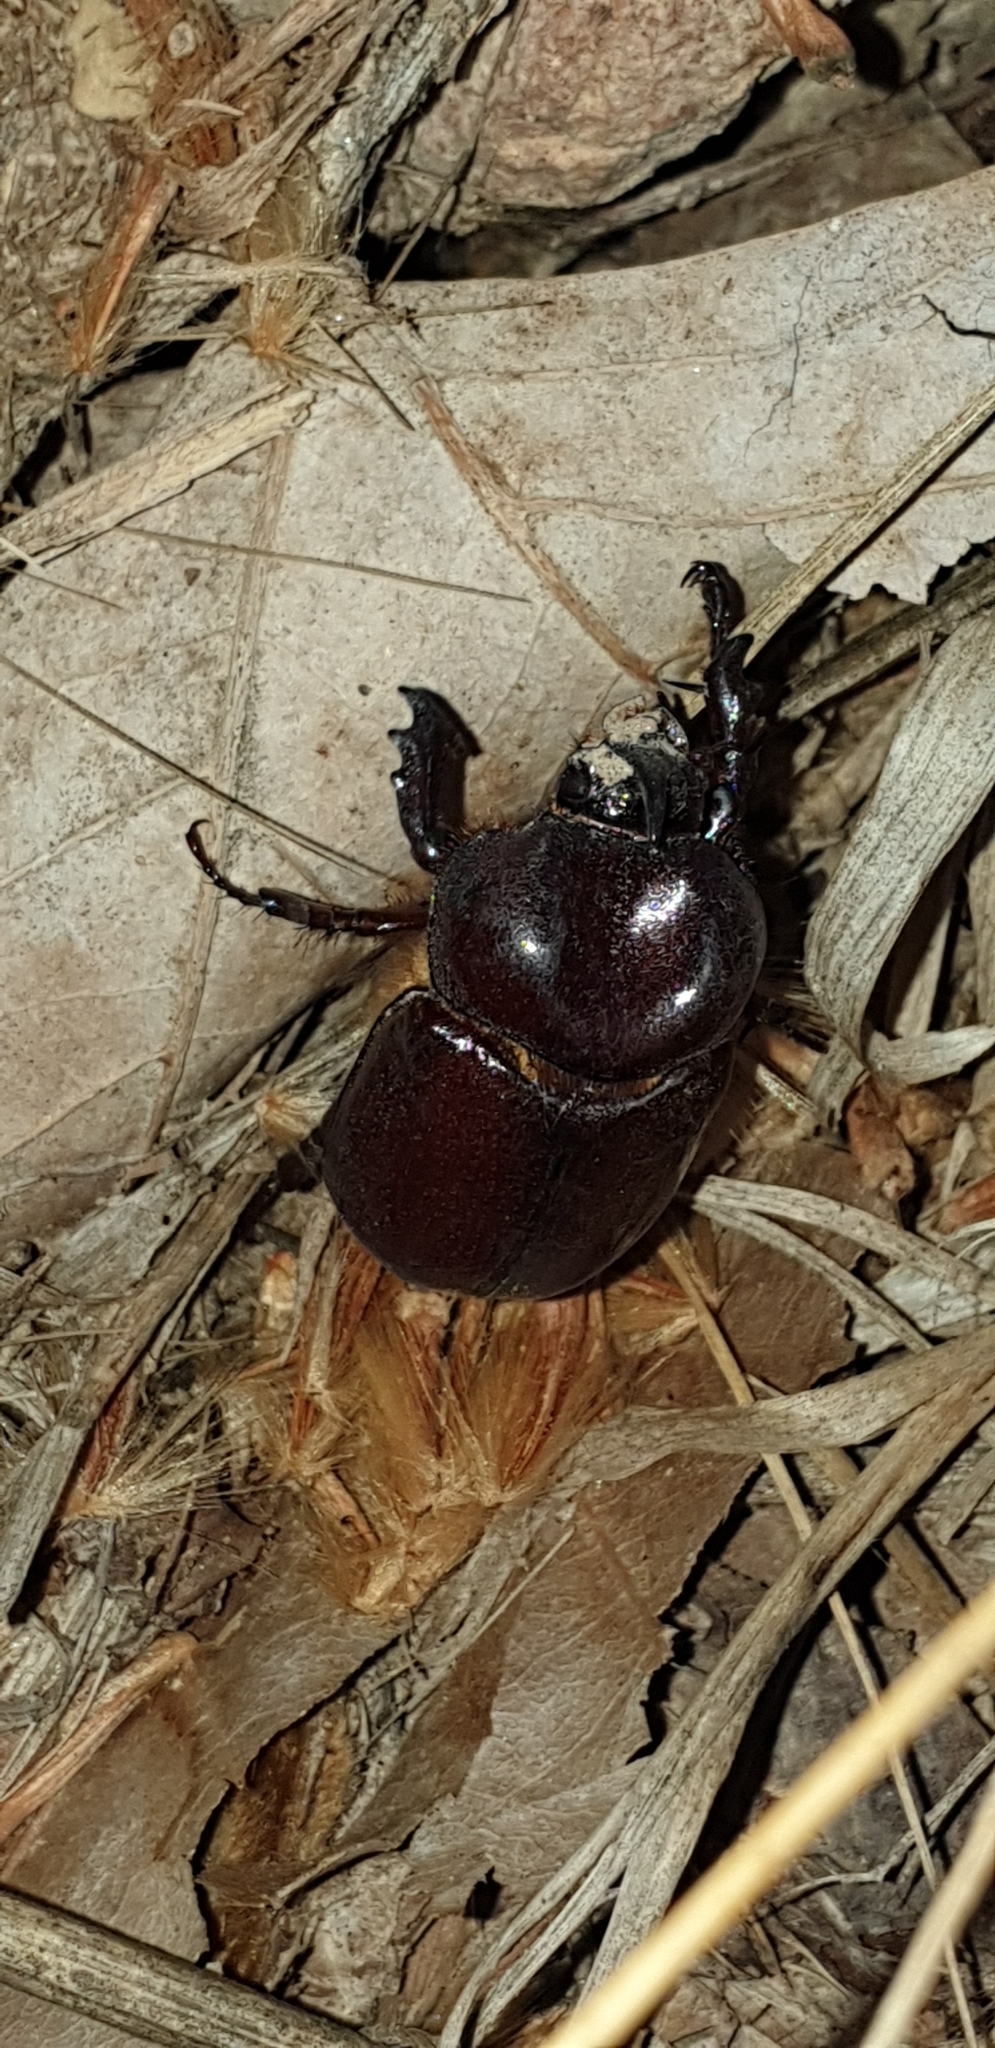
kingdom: Animalia
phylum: Arthropoda
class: Insecta
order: Coleoptera
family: Scarabaeidae
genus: Phyllognathus
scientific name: Phyllognathus excavatus
